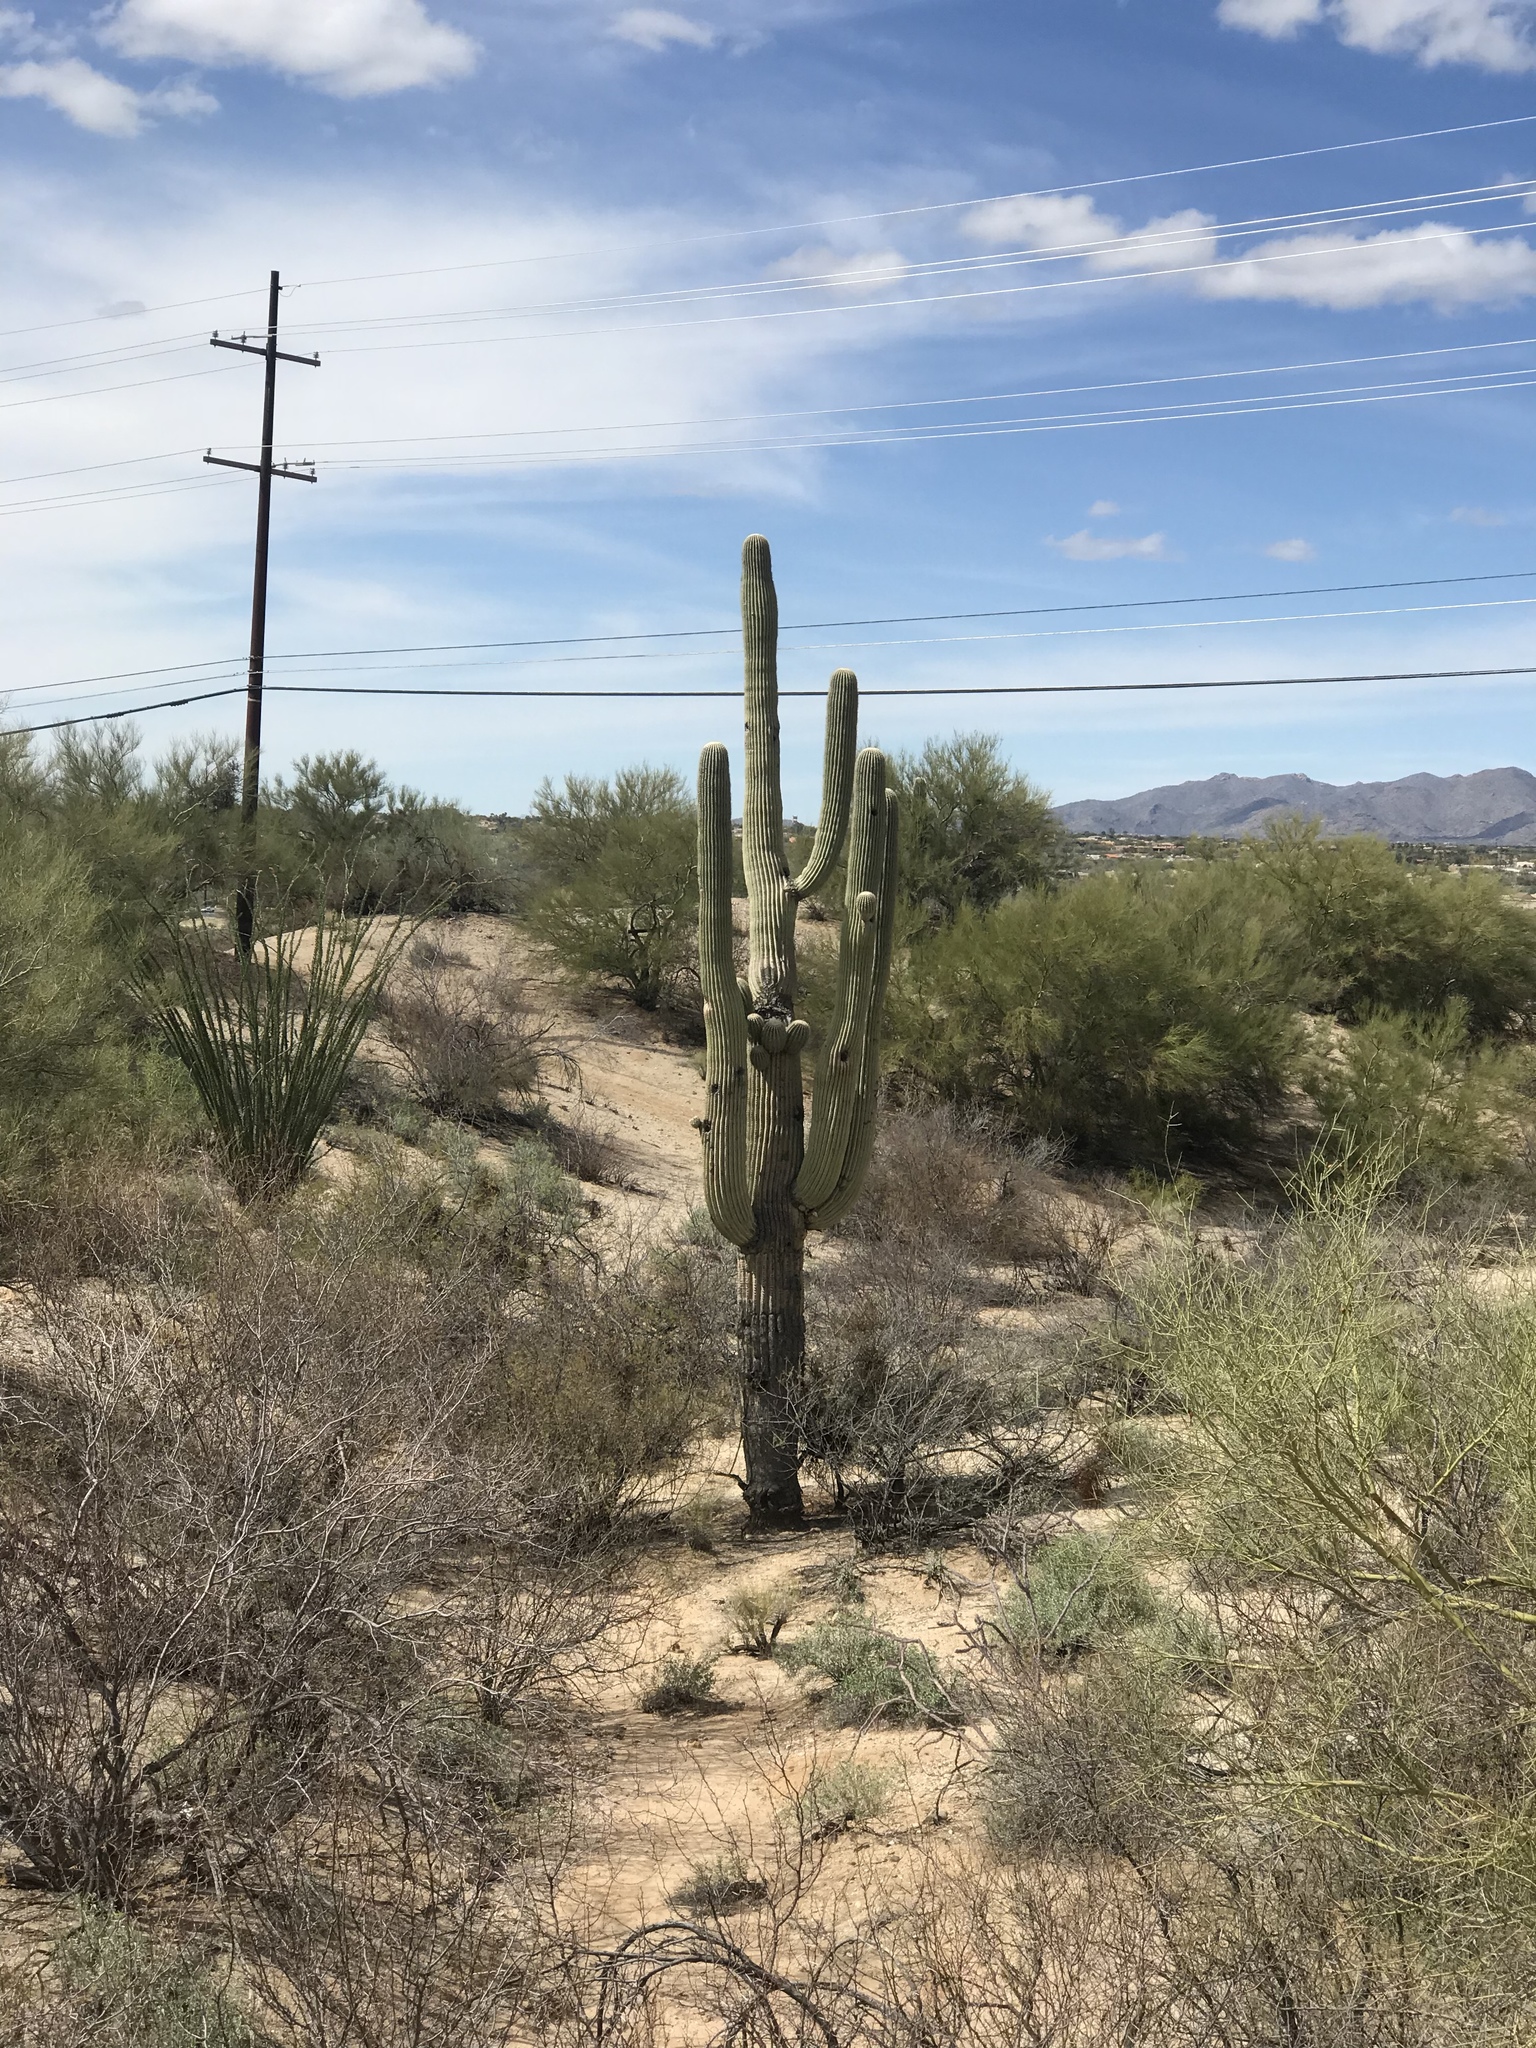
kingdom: Plantae
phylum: Tracheophyta
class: Magnoliopsida
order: Caryophyllales
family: Cactaceae
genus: Carnegiea
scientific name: Carnegiea gigantea
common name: Saguaro
